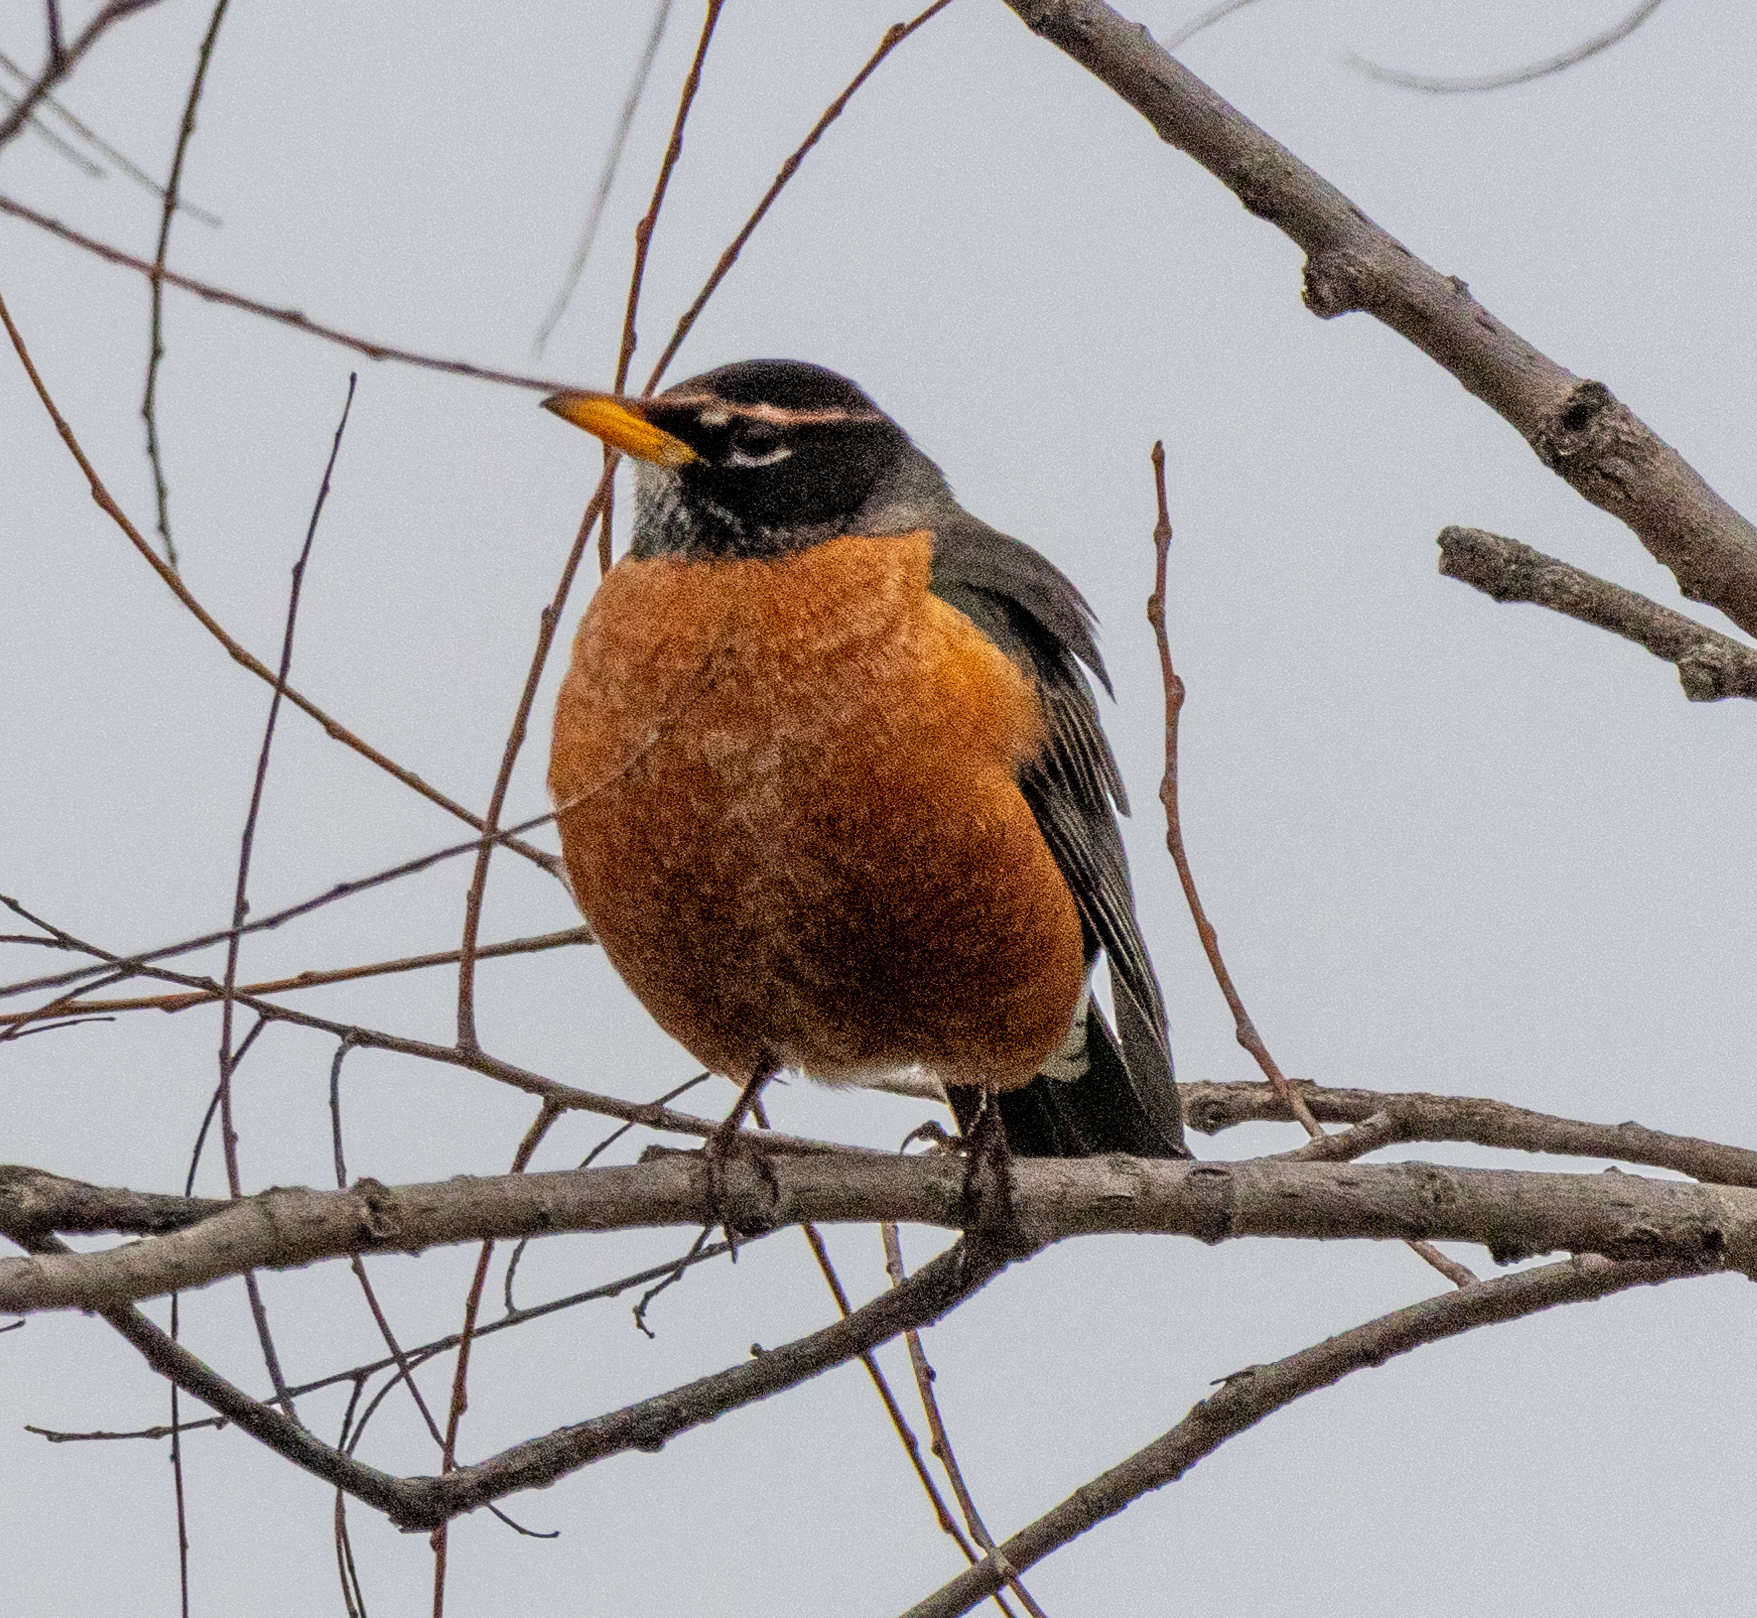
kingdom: Animalia
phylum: Chordata
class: Aves
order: Passeriformes
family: Turdidae
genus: Turdus
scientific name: Turdus migratorius
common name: American robin
